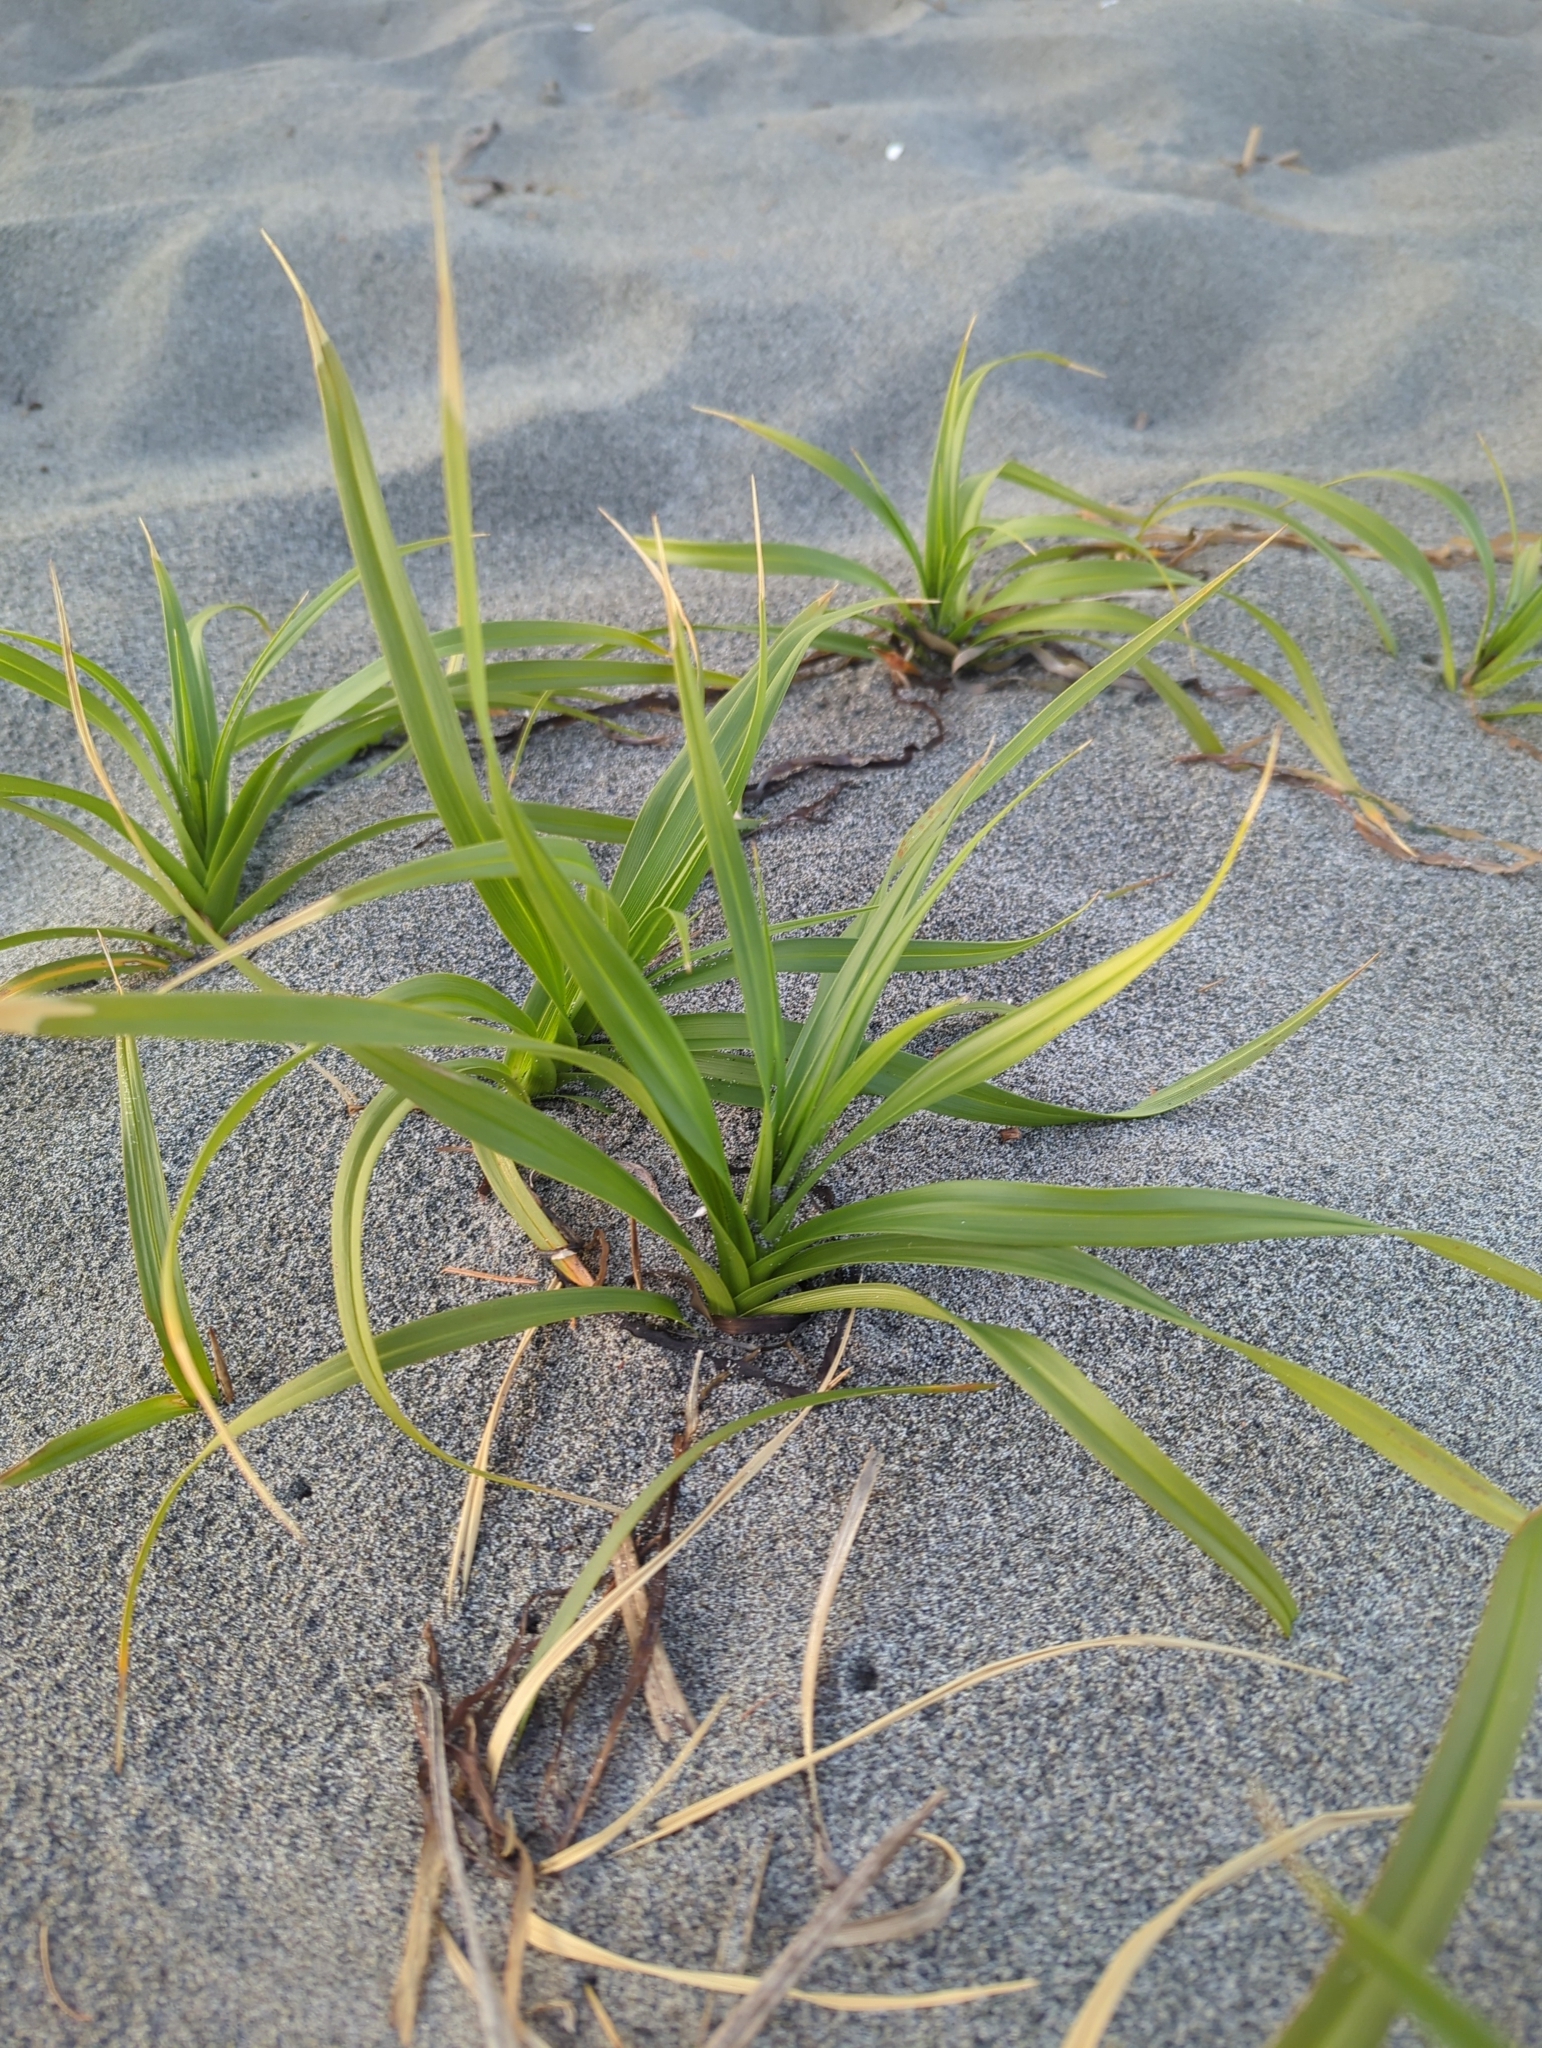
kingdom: Plantae
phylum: Tracheophyta
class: Liliopsida
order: Poales
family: Cyperaceae
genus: Carex
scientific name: Carex macrocephala
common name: Large-head sedge
